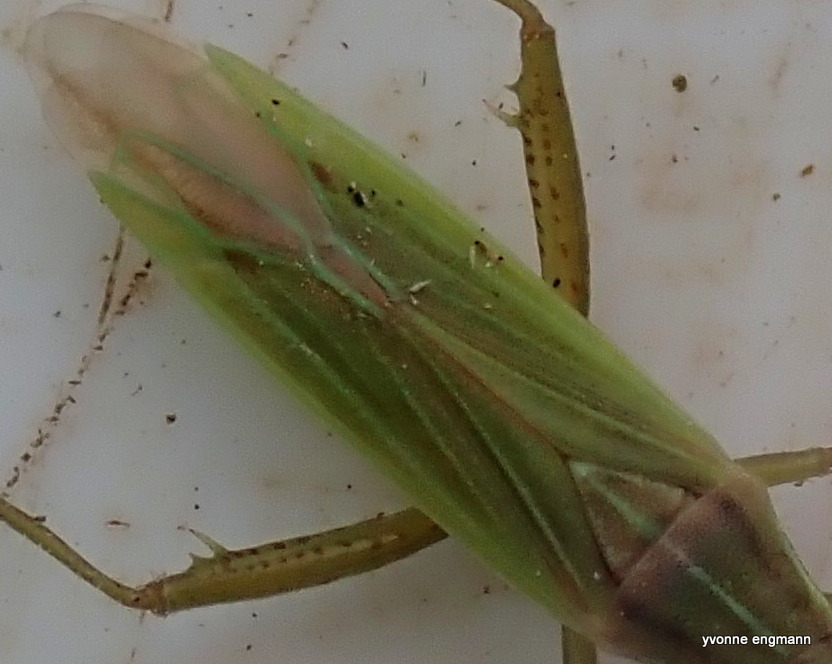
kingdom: Animalia
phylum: Arthropoda
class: Insecta
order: Hemiptera
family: Miridae
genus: Stenodema
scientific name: Stenodema calcarata
